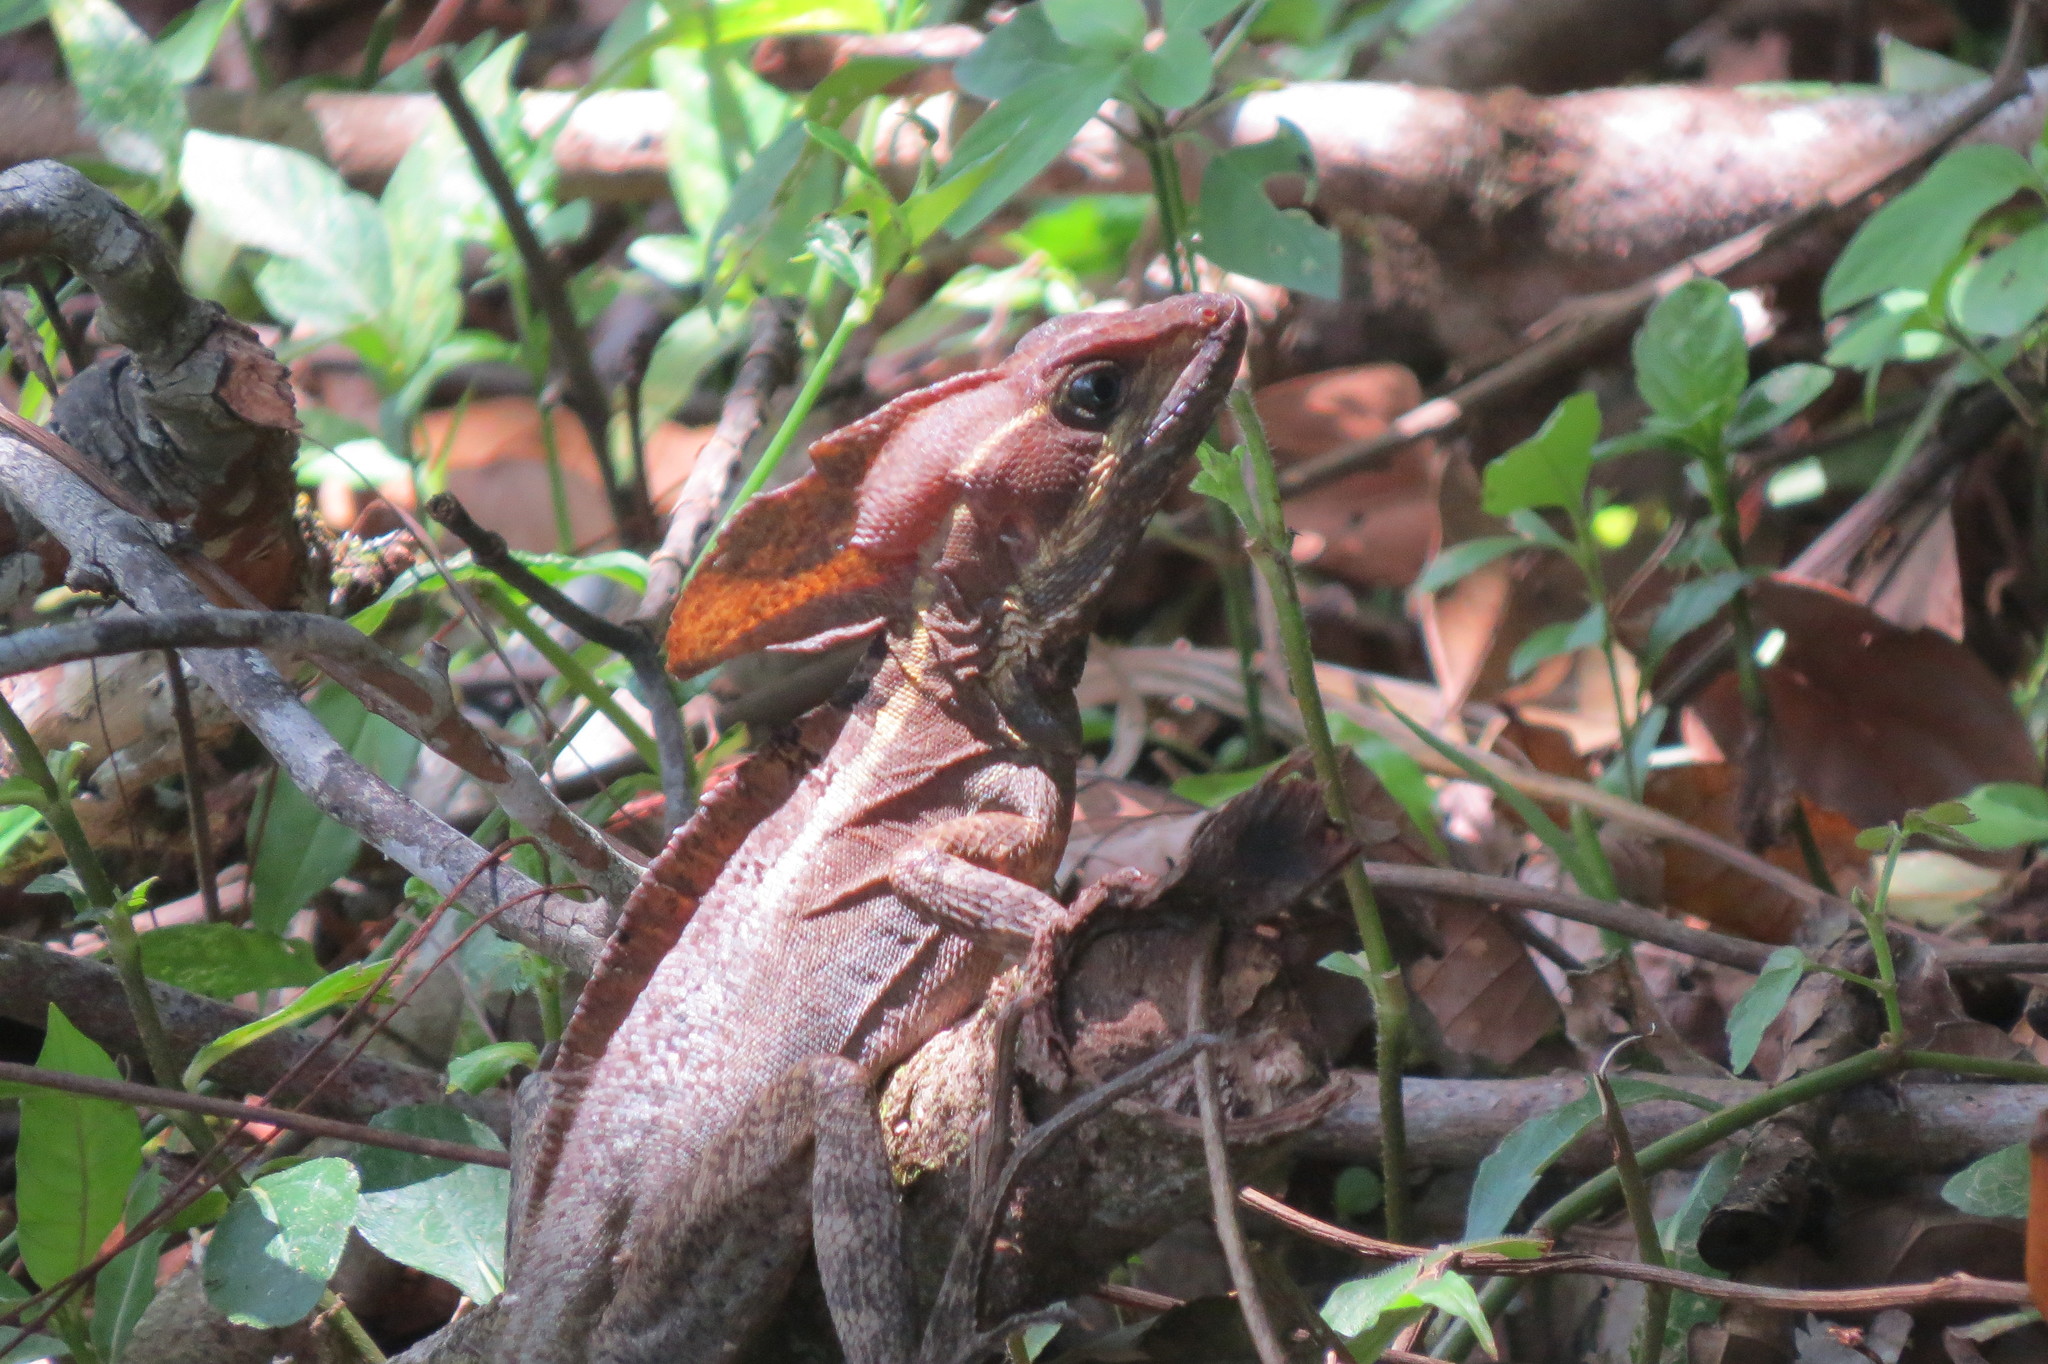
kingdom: Animalia
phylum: Chordata
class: Squamata
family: Corytophanidae
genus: Basiliscus
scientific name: Basiliscus vittatus
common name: Brown basilisk
